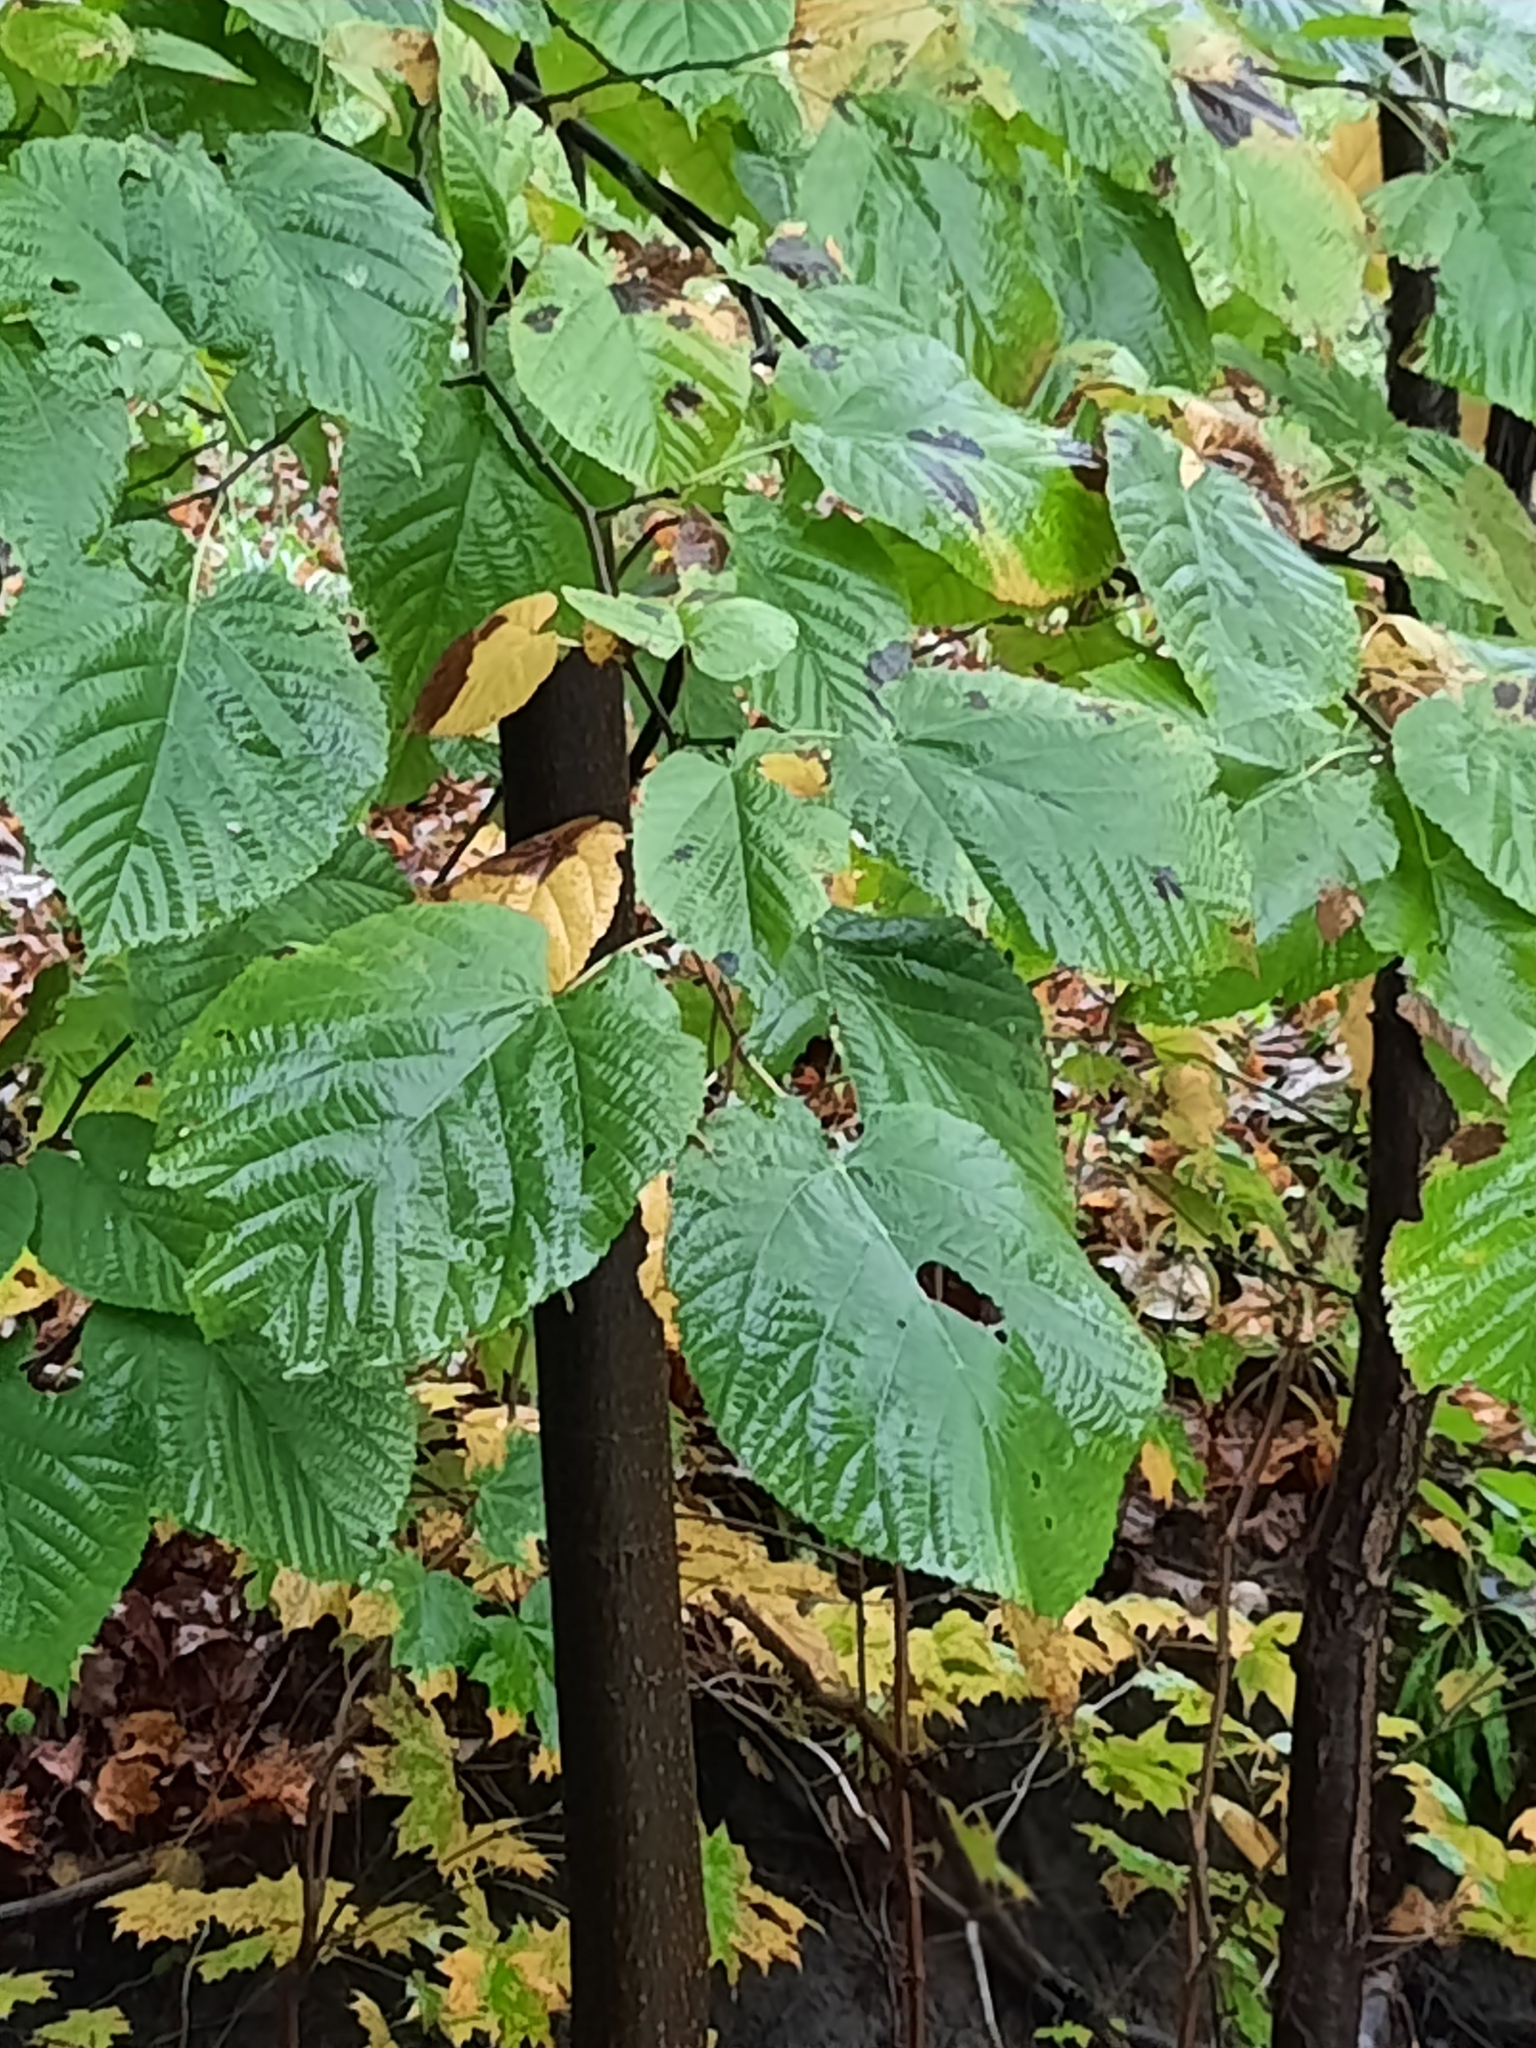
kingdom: Plantae
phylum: Tracheophyta
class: Magnoliopsida
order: Malvales
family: Malvaceae
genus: Tilia
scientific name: Tilia americana
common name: Basswood
